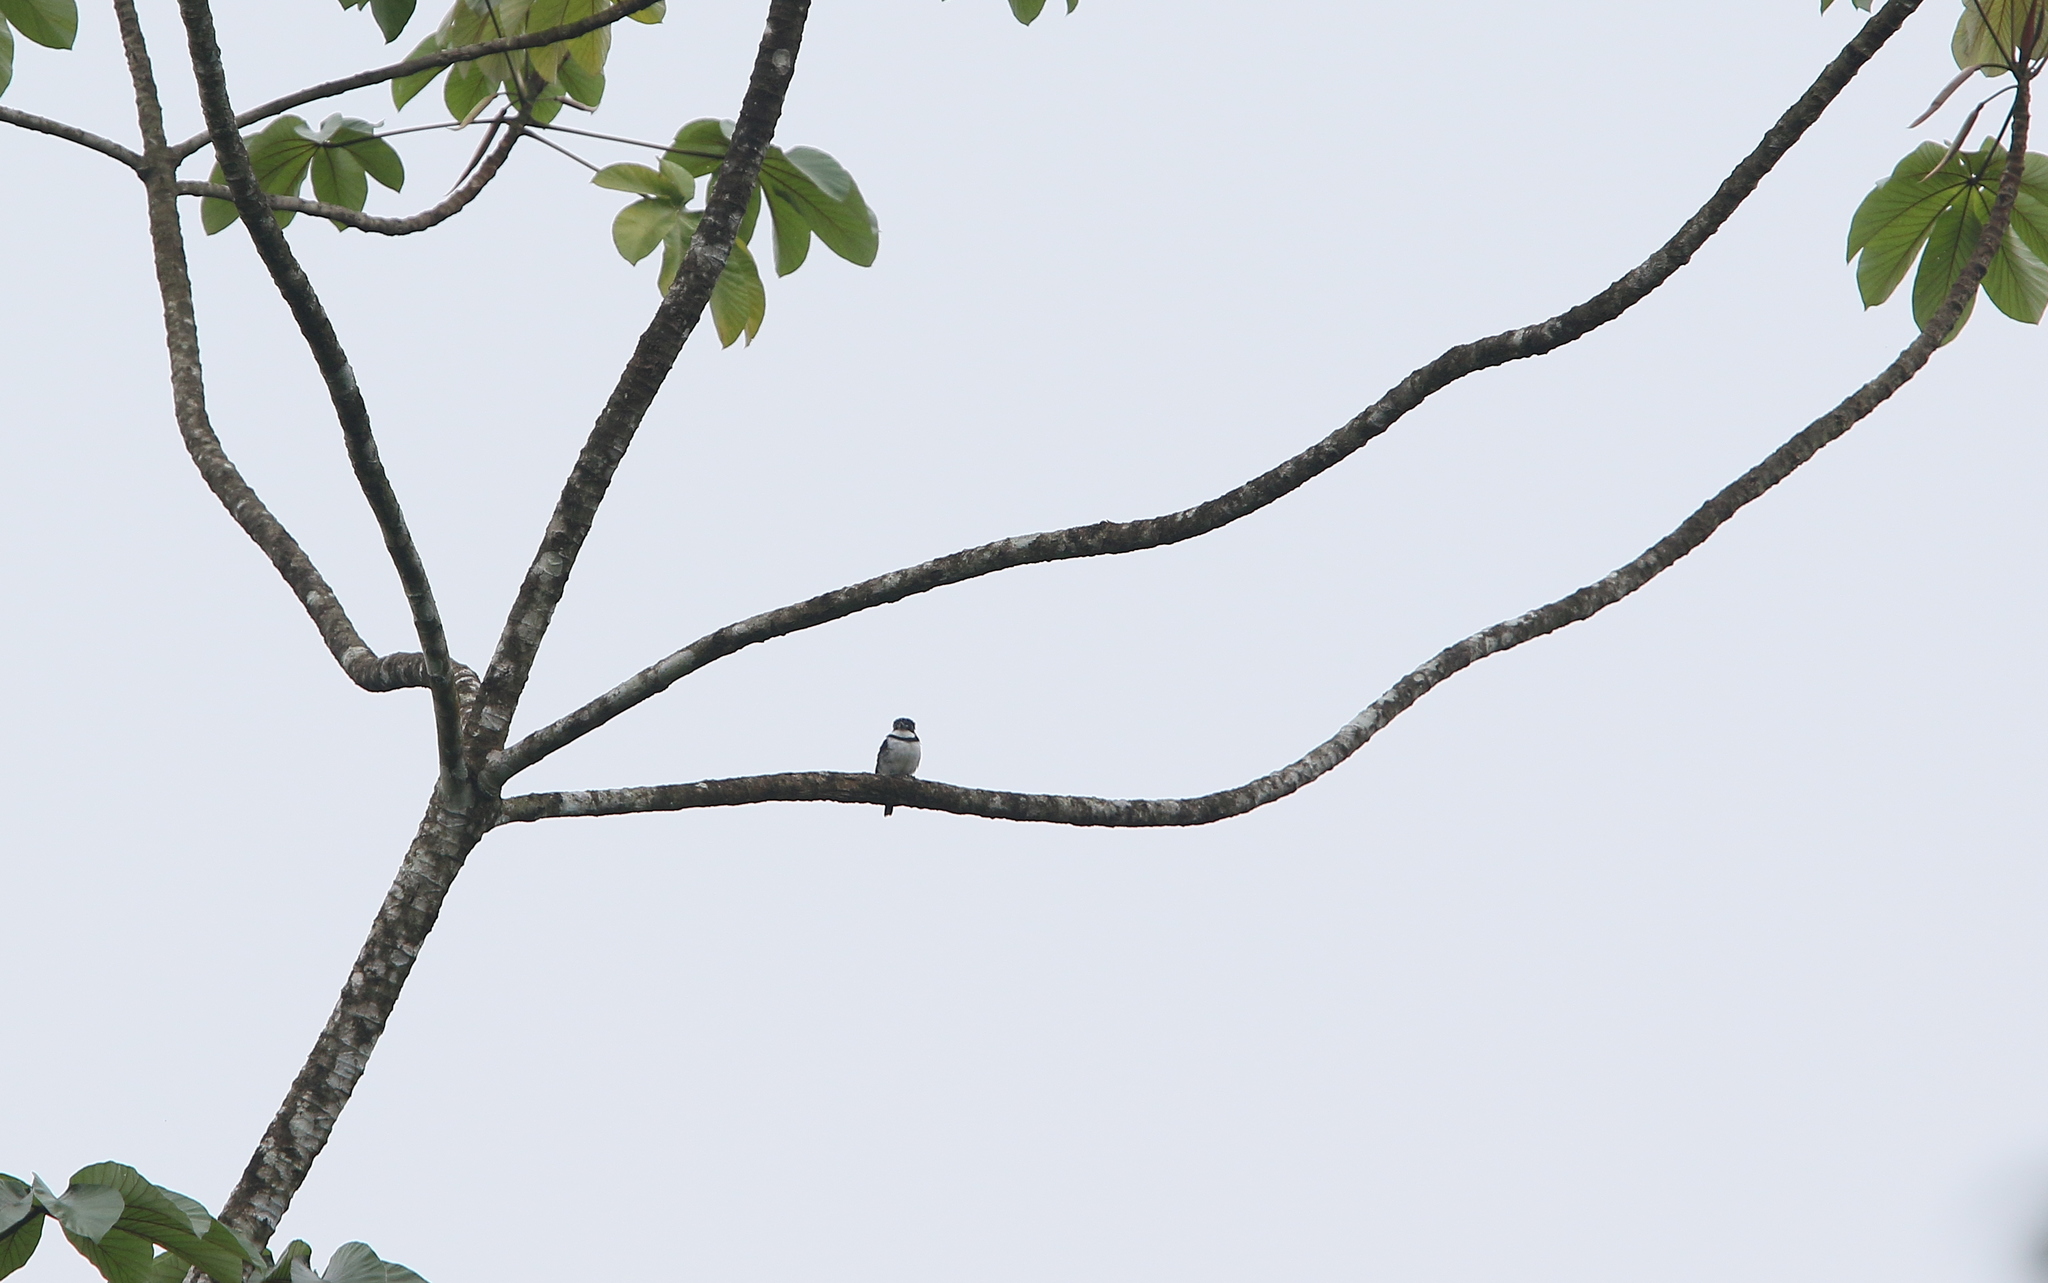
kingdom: Animalia
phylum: Chordata
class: Aves
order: Piciformes
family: Bucconidae
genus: Notharchus
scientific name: Notharchus tectus
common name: Pied puffbird
